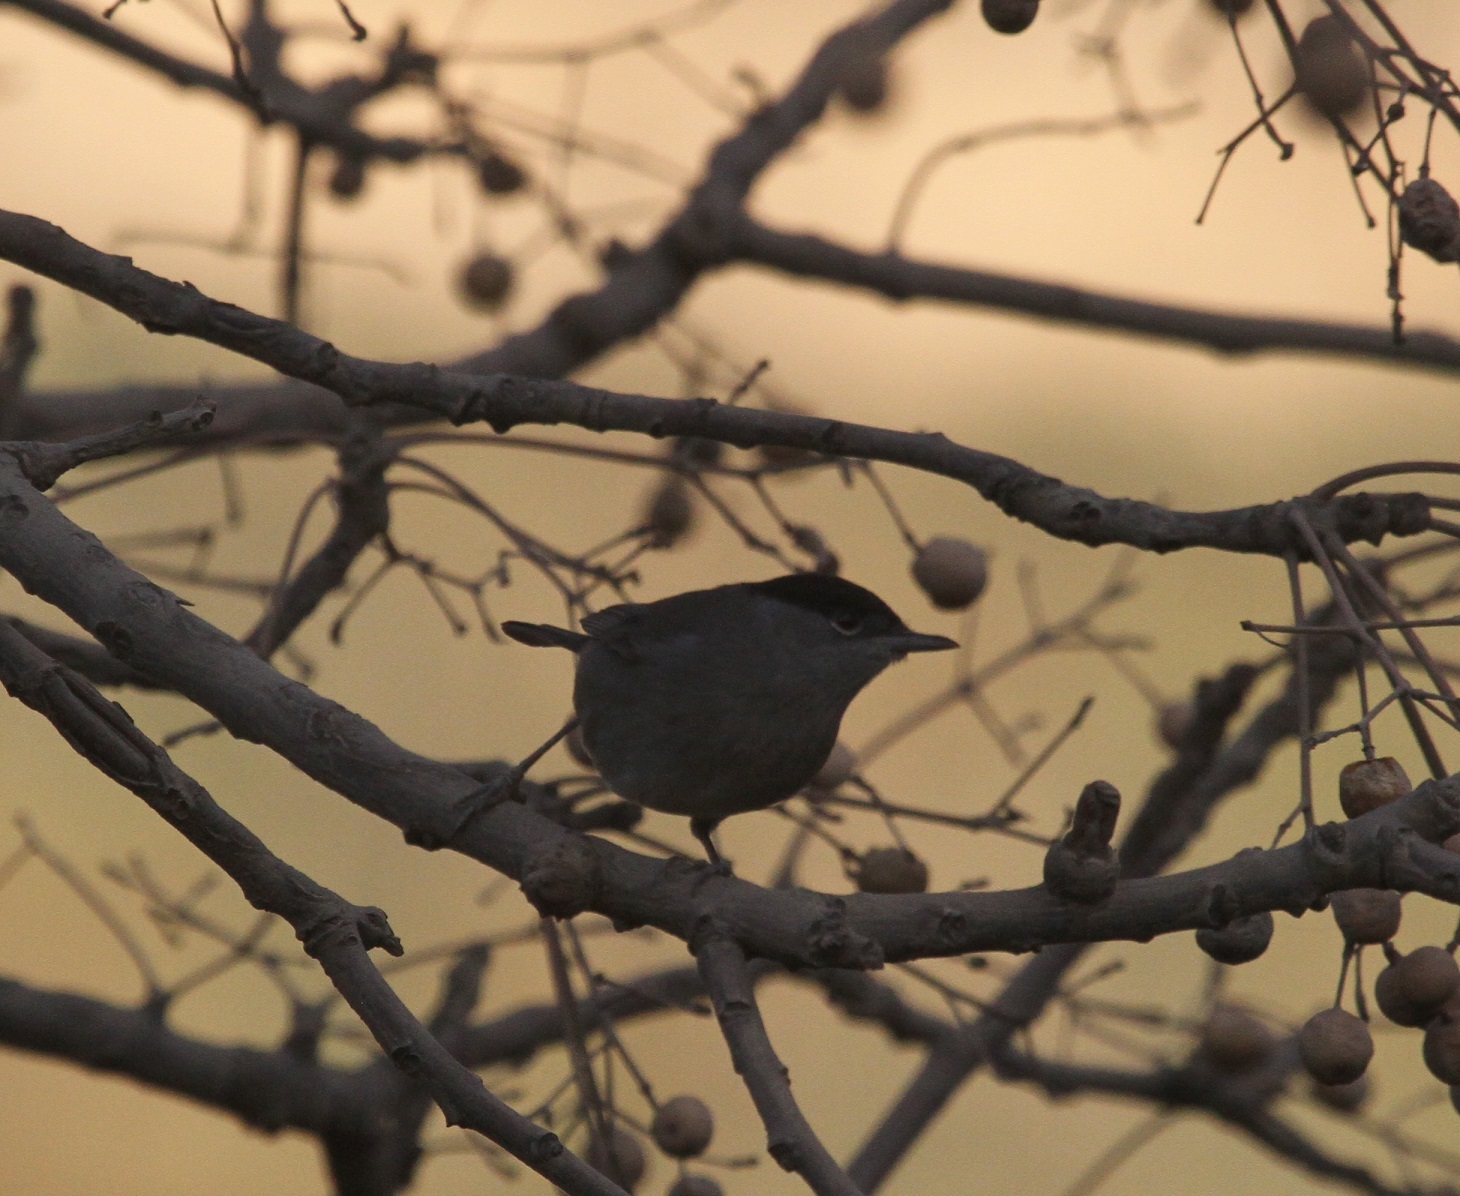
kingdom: Animalia
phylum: Chordata
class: Aves
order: Passeriformes
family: Sylviidae
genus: Sylvia
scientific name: Sylvia atricapilla
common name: Eurasian blackcap
